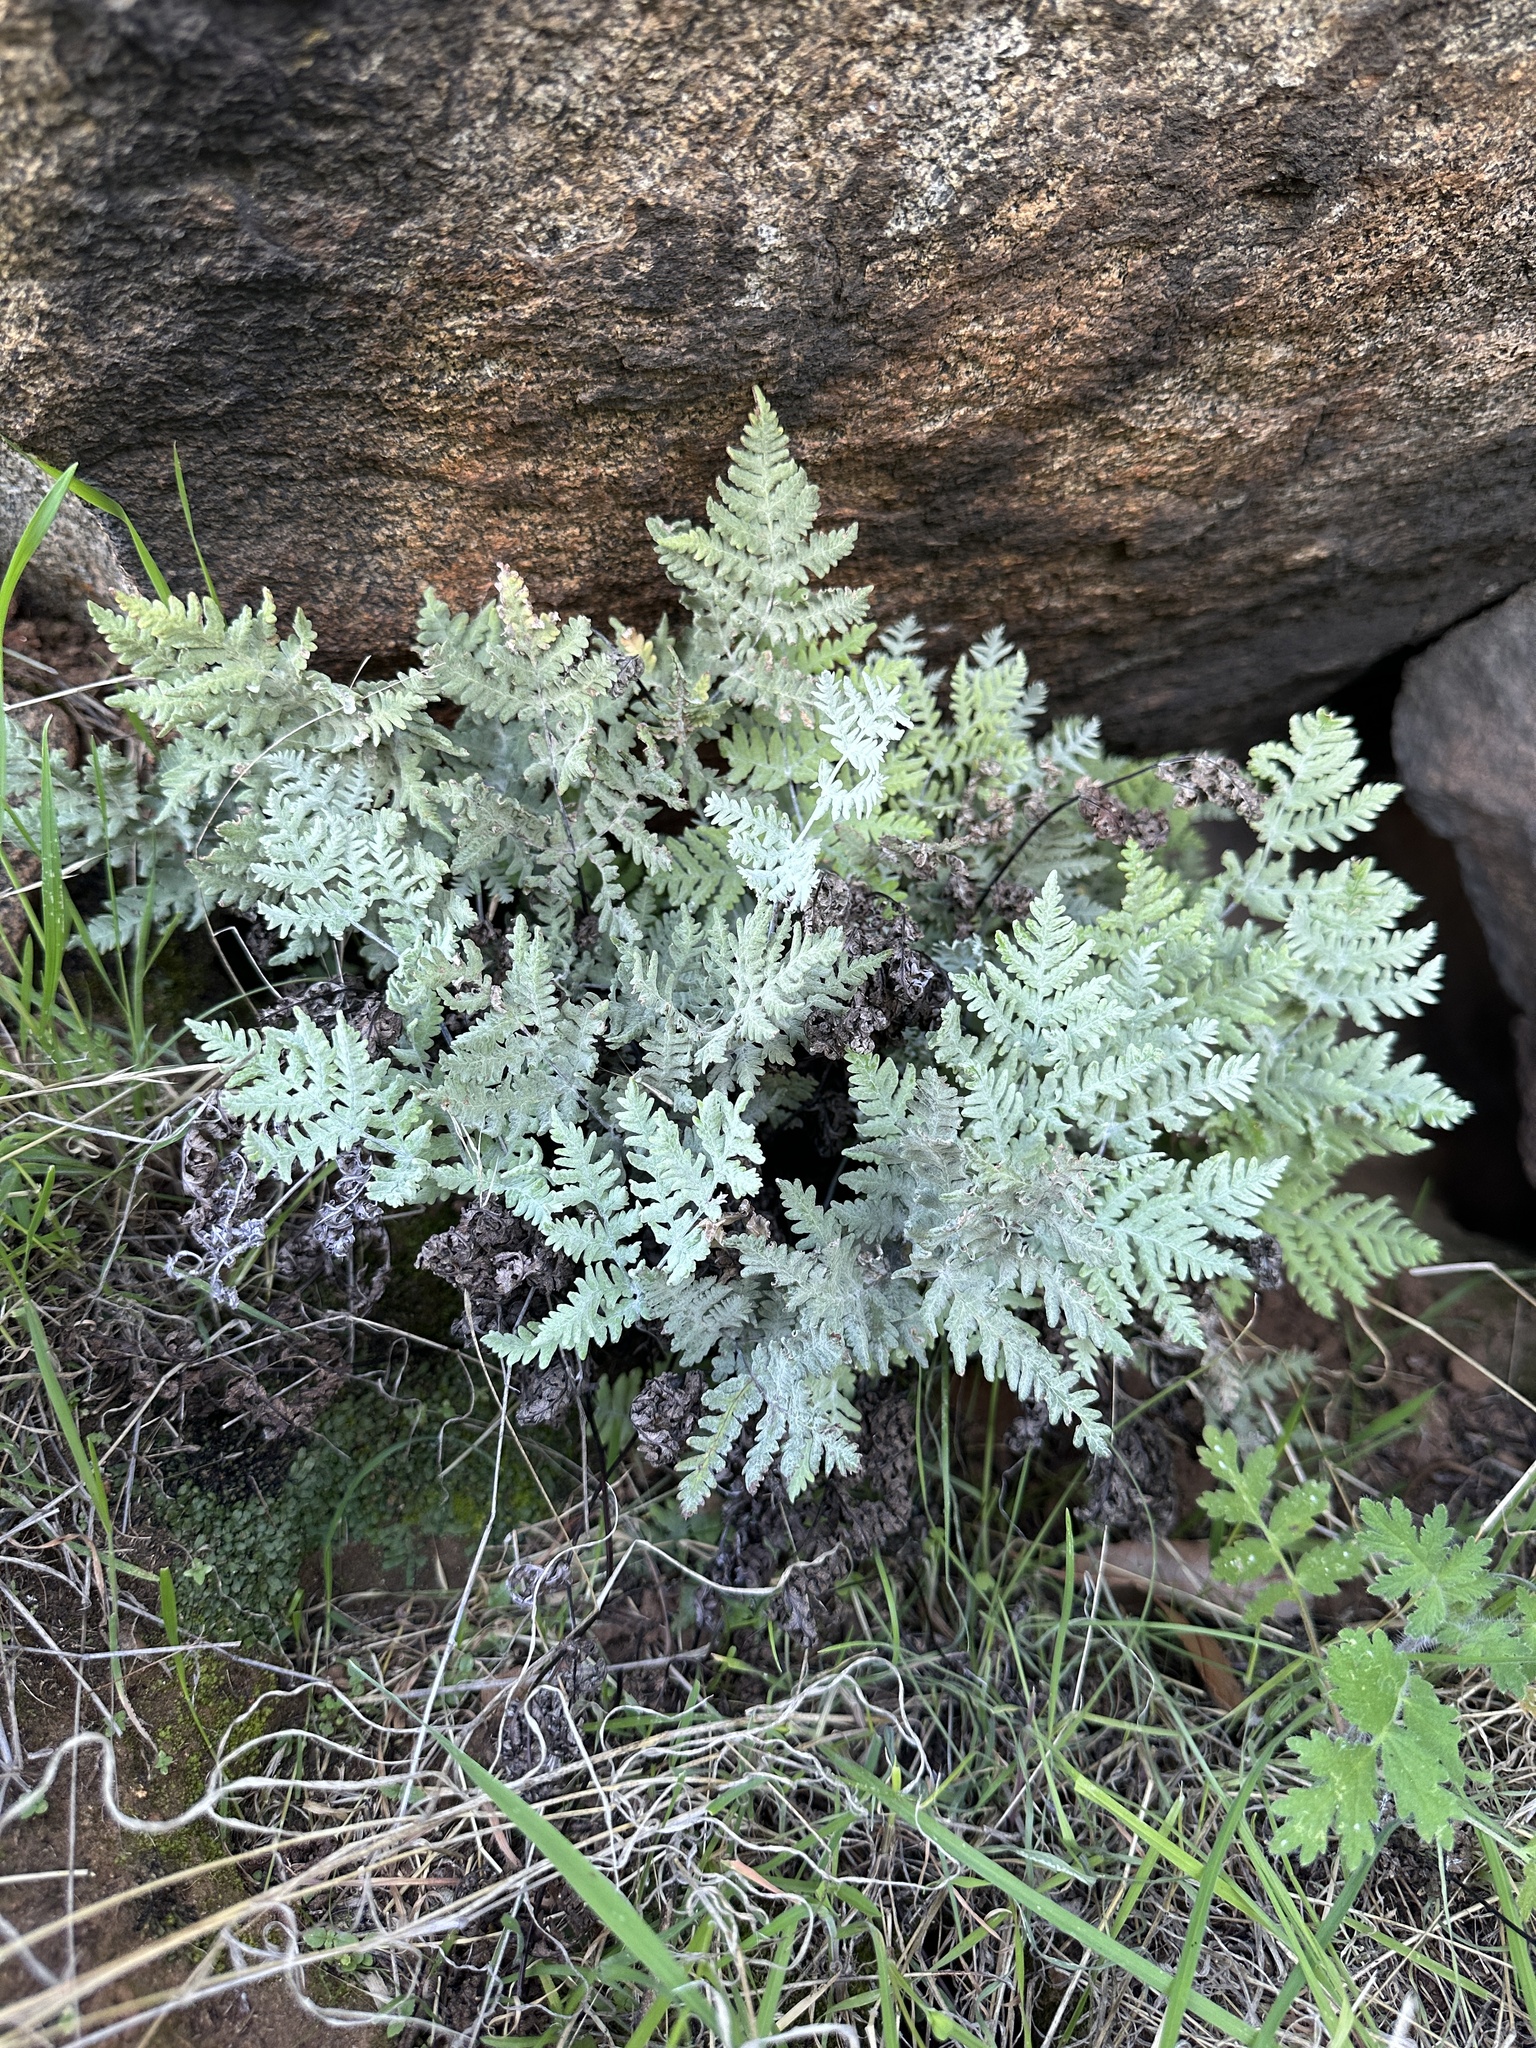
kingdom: Plantae
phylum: Tracheophyta
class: Polypodiopsida
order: Polypodiales
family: Pteridaceae
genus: Pentagramma
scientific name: Pentagramma pallida
